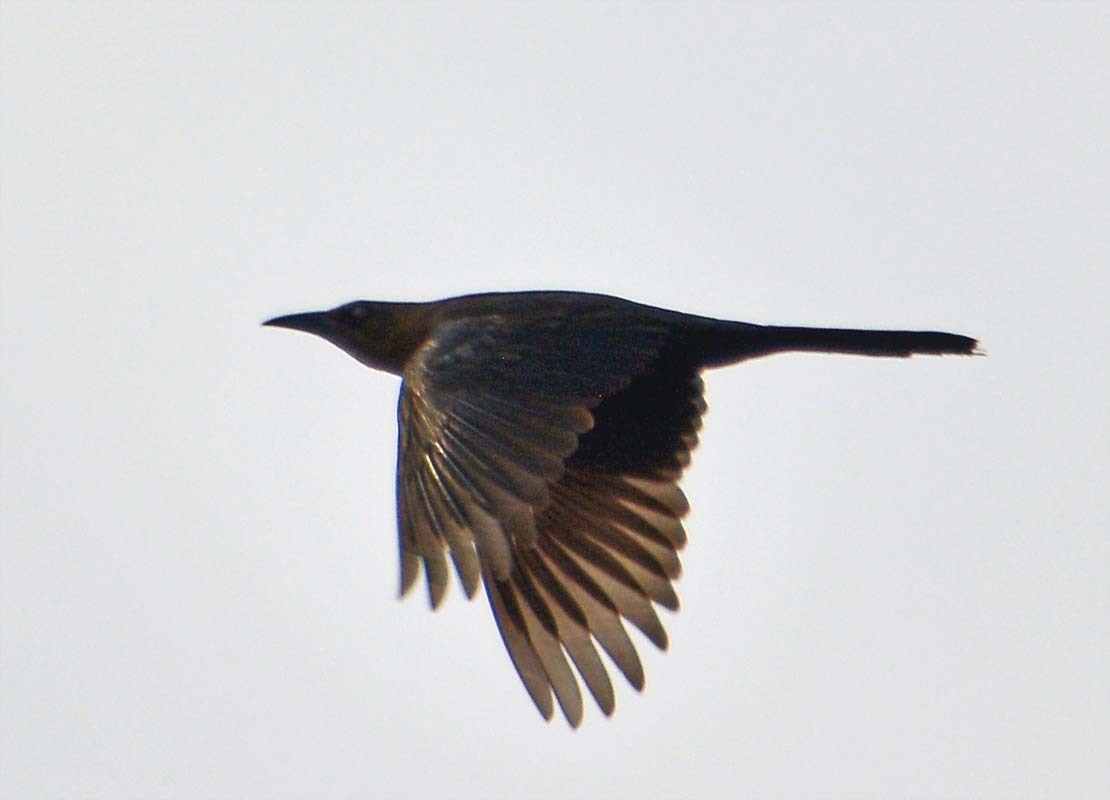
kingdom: Animalia
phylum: Chordata
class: Aves
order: Passeriformes
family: Icteridae
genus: Quiscalus
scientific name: Quiscalus mexicanus
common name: Great-tailed grackle
